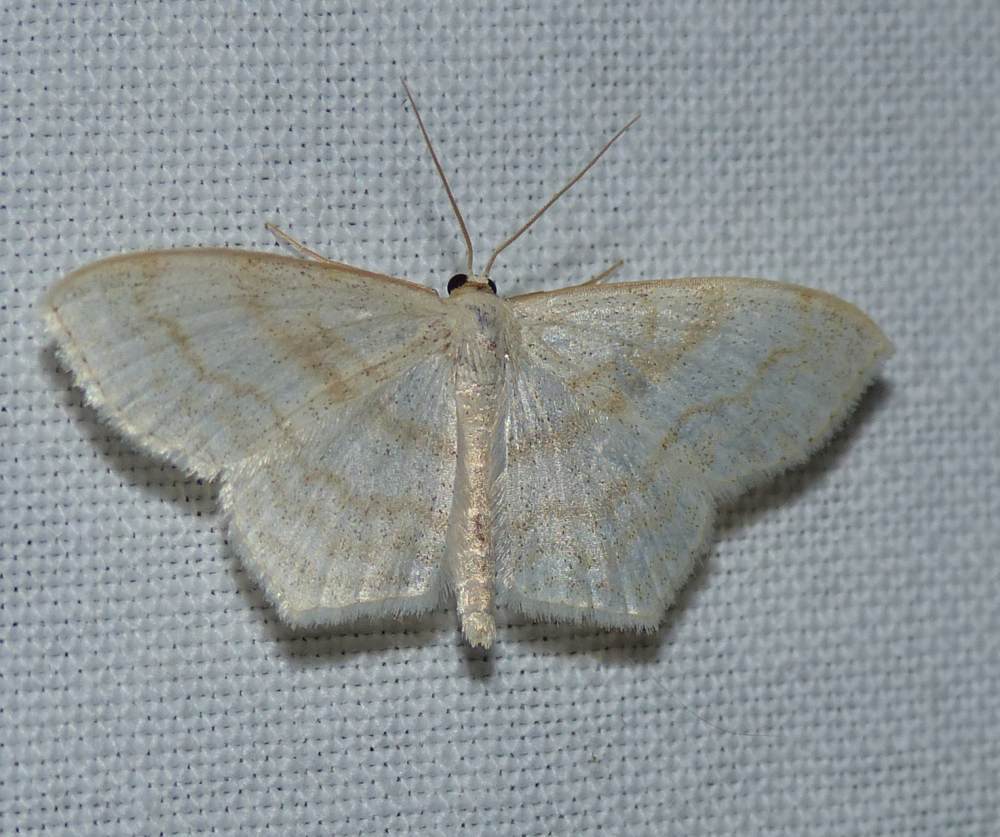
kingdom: Animalia
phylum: Arthropoda
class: Insecta
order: Lepidoptera
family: Geometridae
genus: Scopula
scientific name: Scopula limboundata
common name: Large lace border
